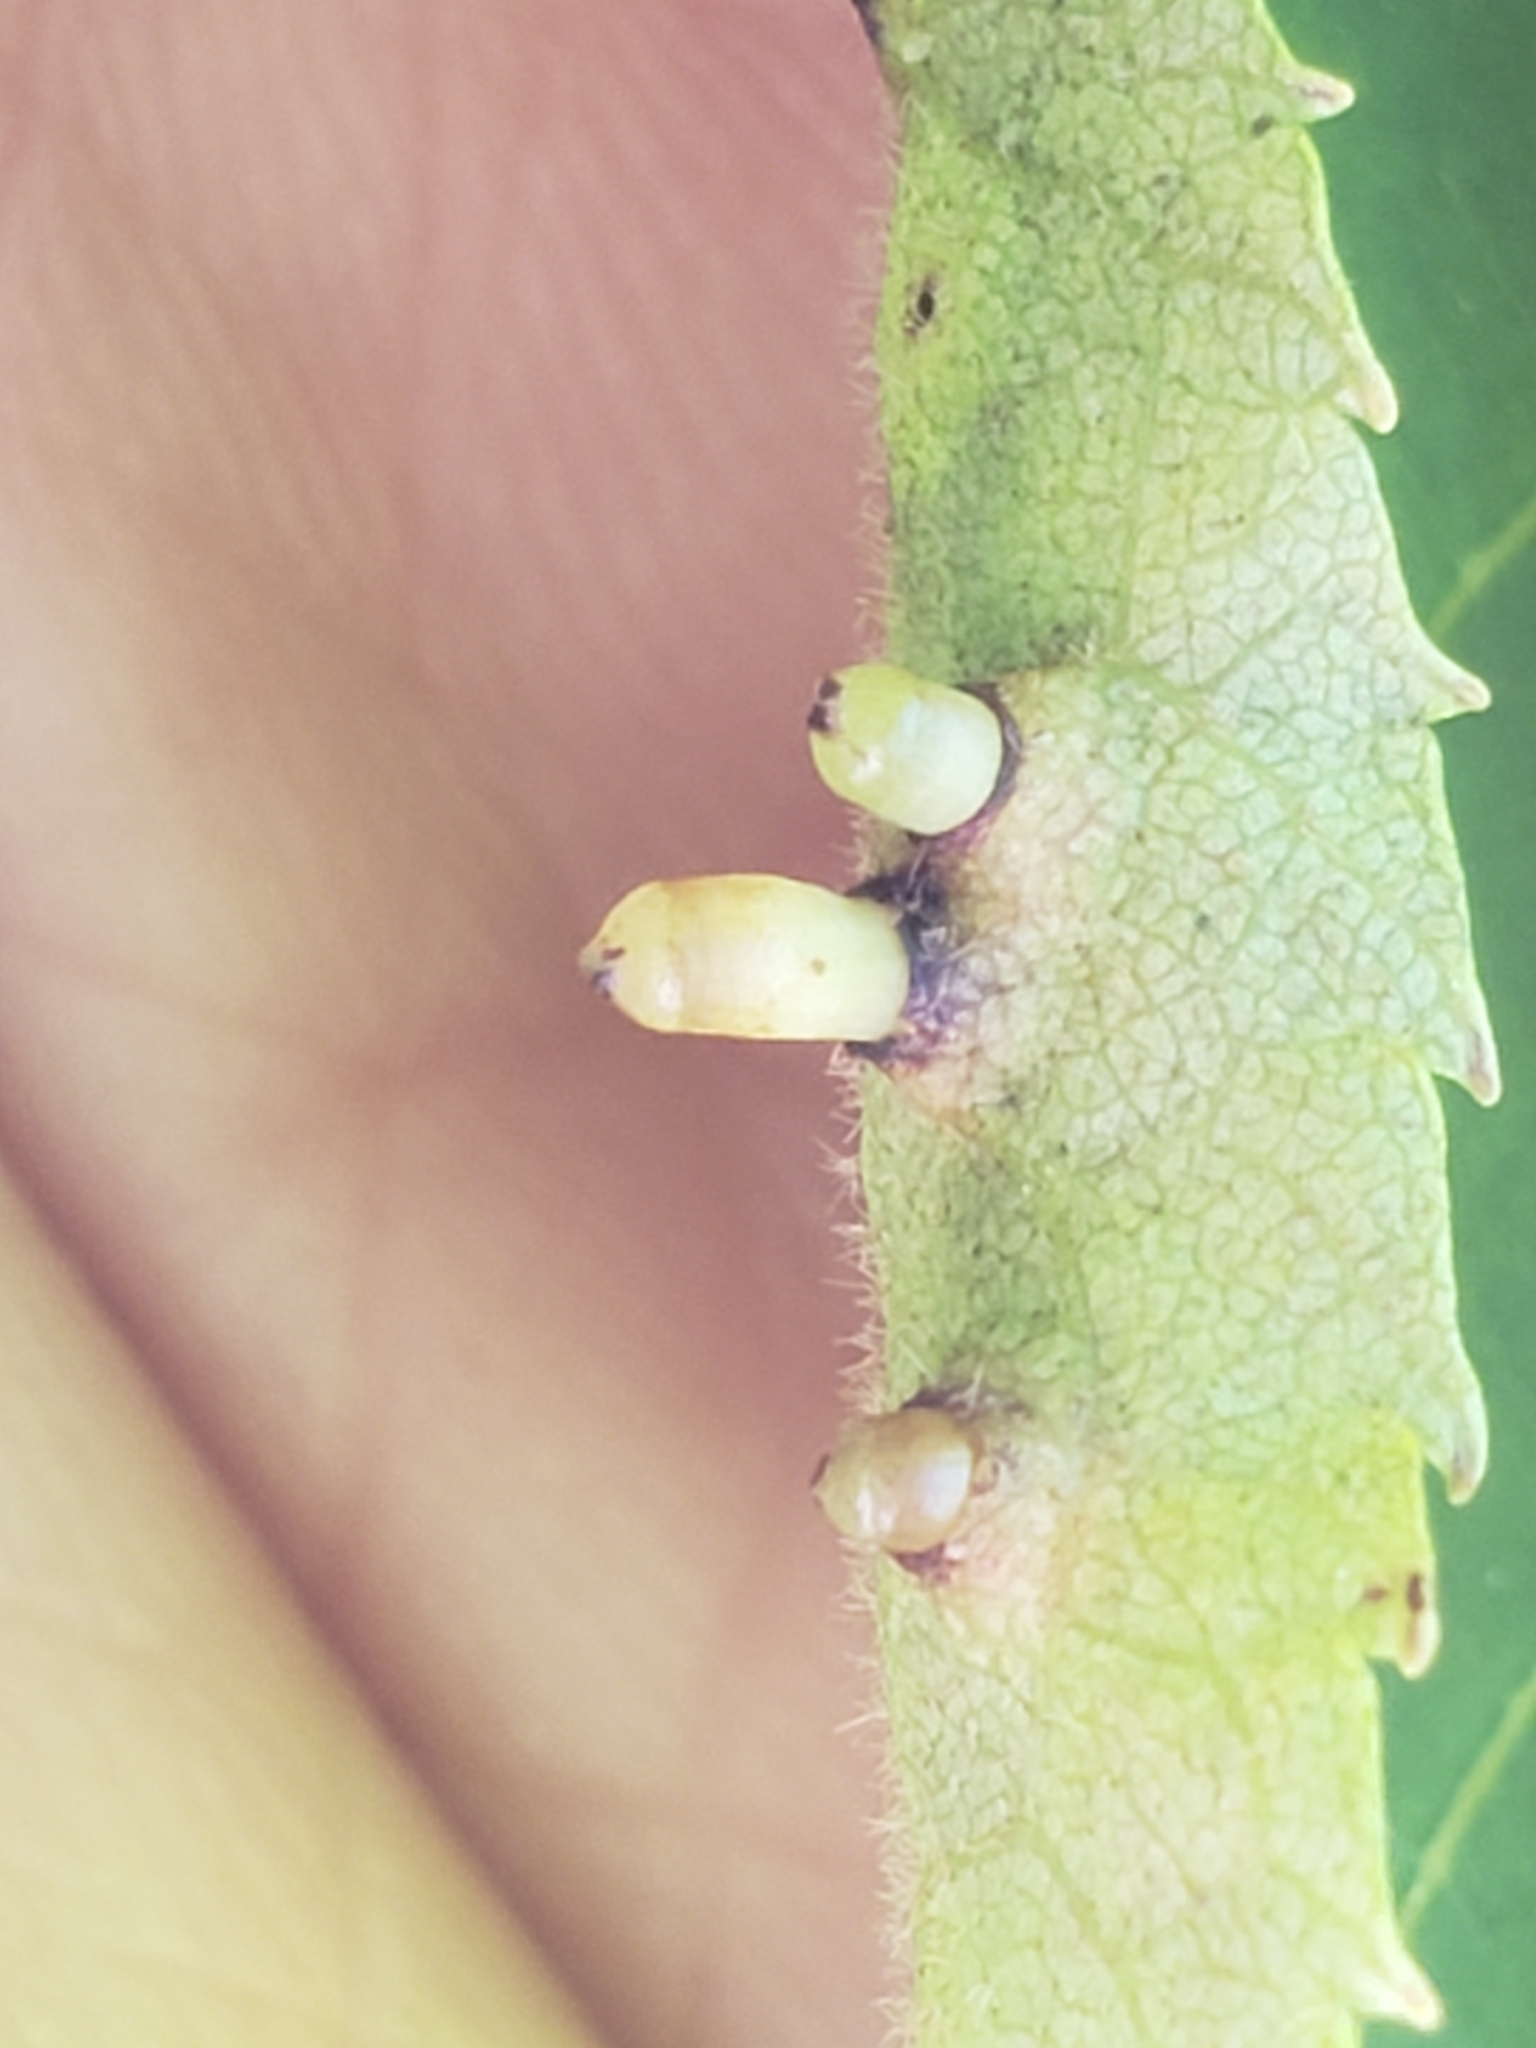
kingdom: Animalia
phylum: Arthropoda
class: Insecta
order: Diptera
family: Cecidomyiidae
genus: Caryomyia
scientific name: Caryomyia tubicola
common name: Hickory bullet gall midge
